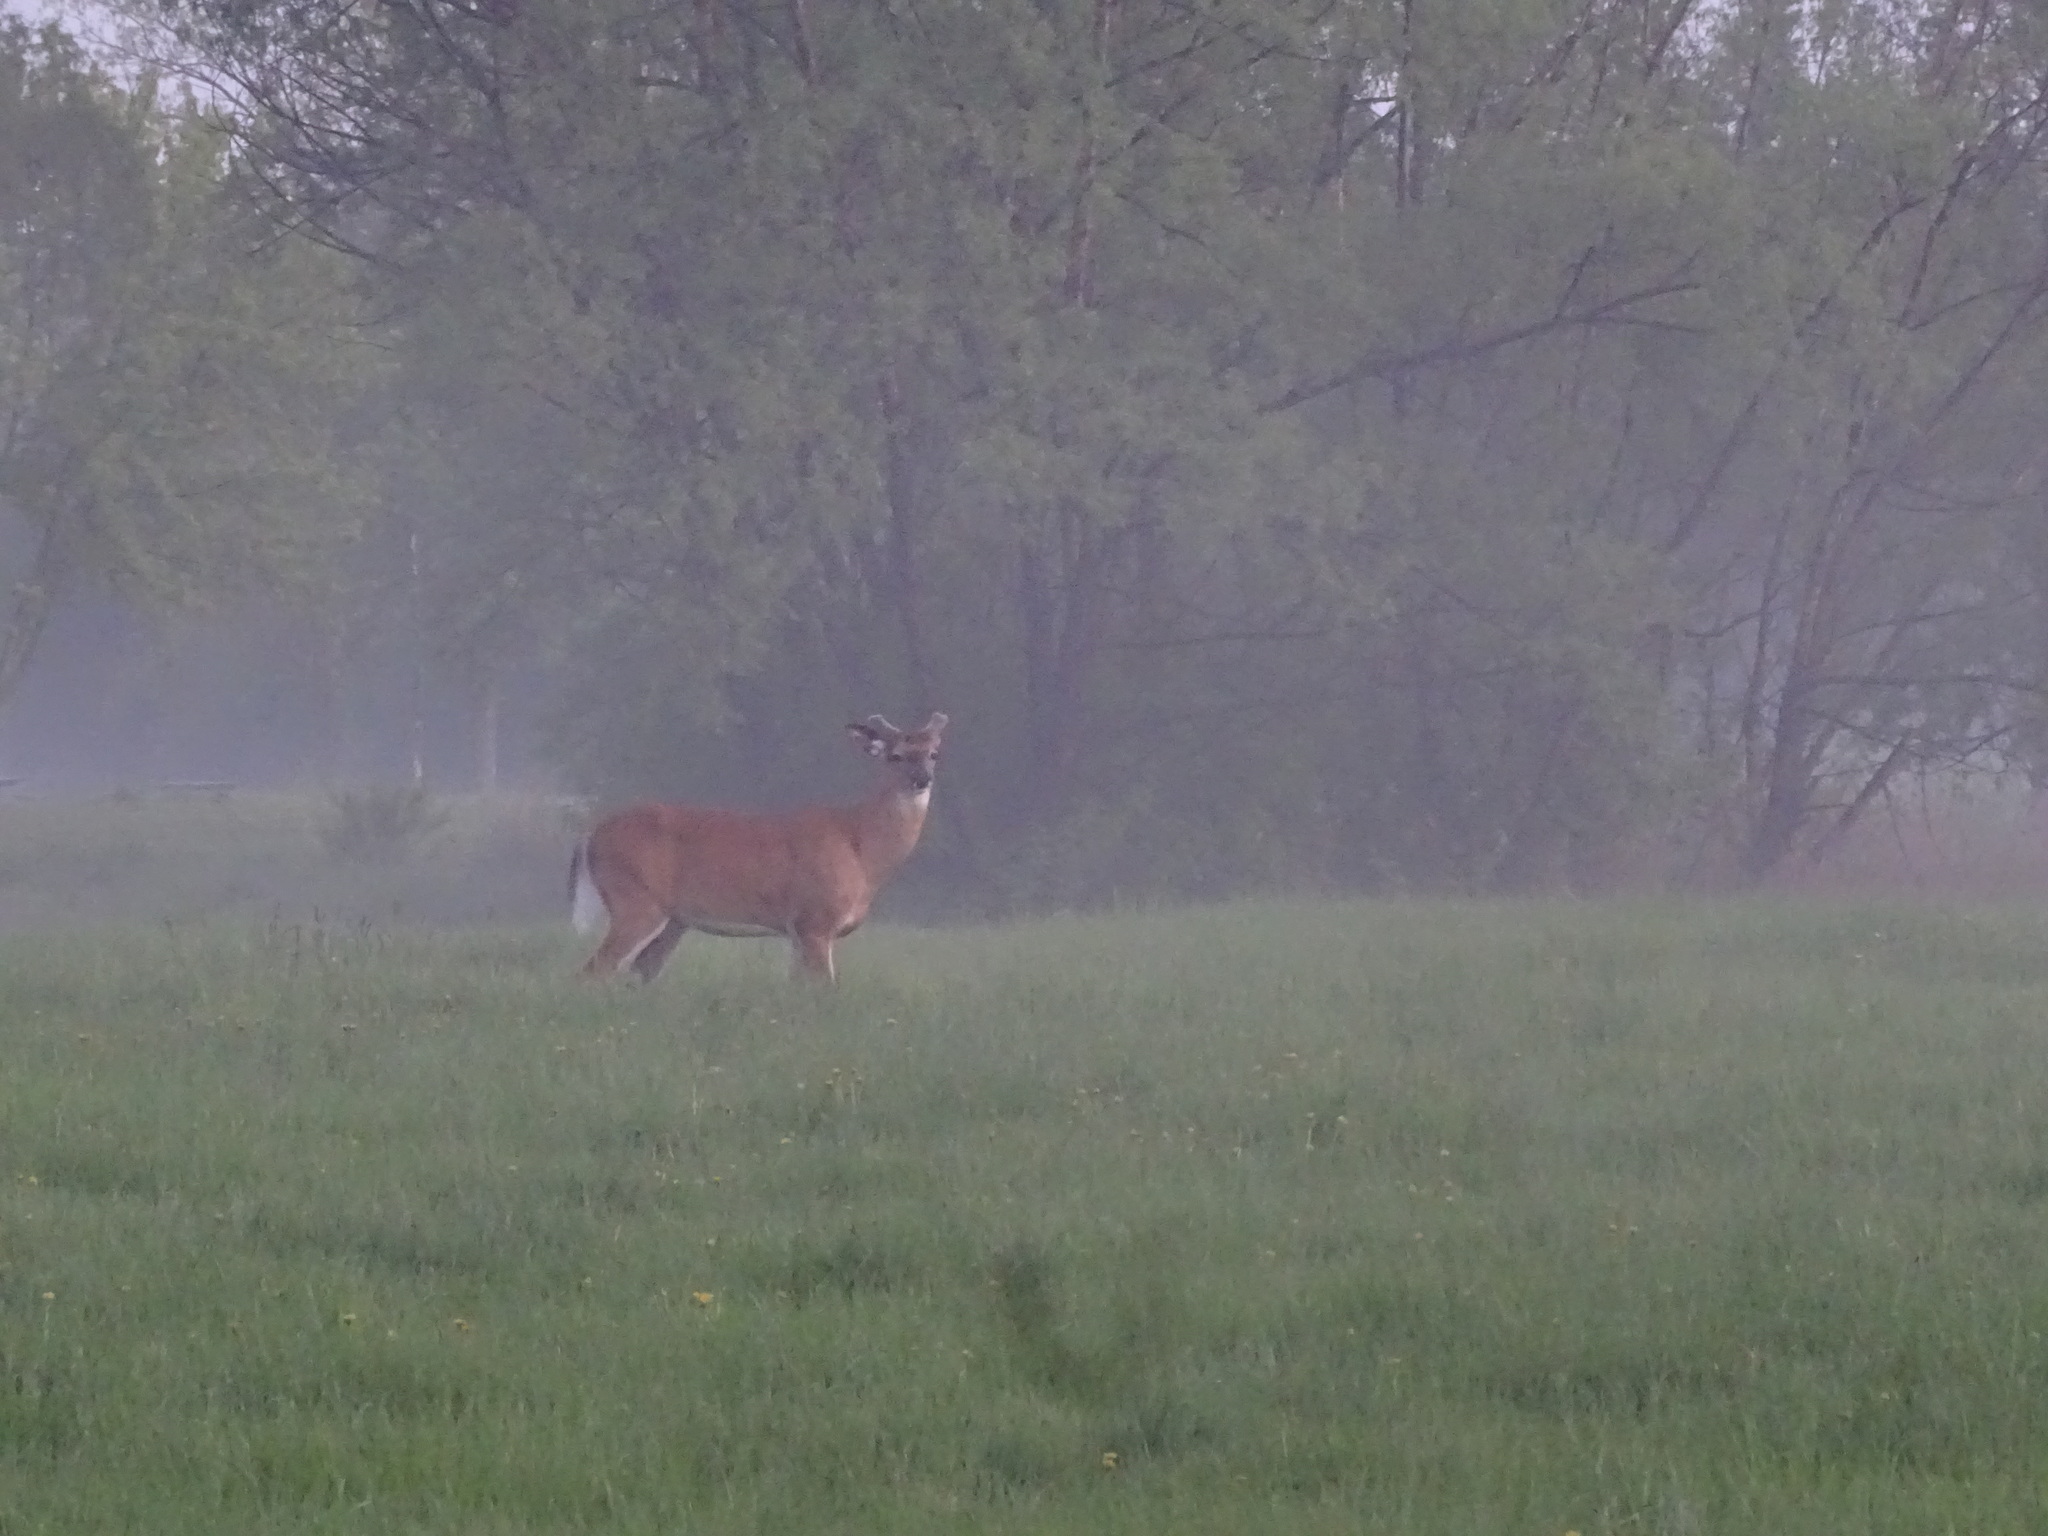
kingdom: Animalia
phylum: Chordata
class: Mammalia
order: Artiodactyla
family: Cervidae
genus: Odocoileus
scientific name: Odocoileus virginianus
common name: White-tailed deer
